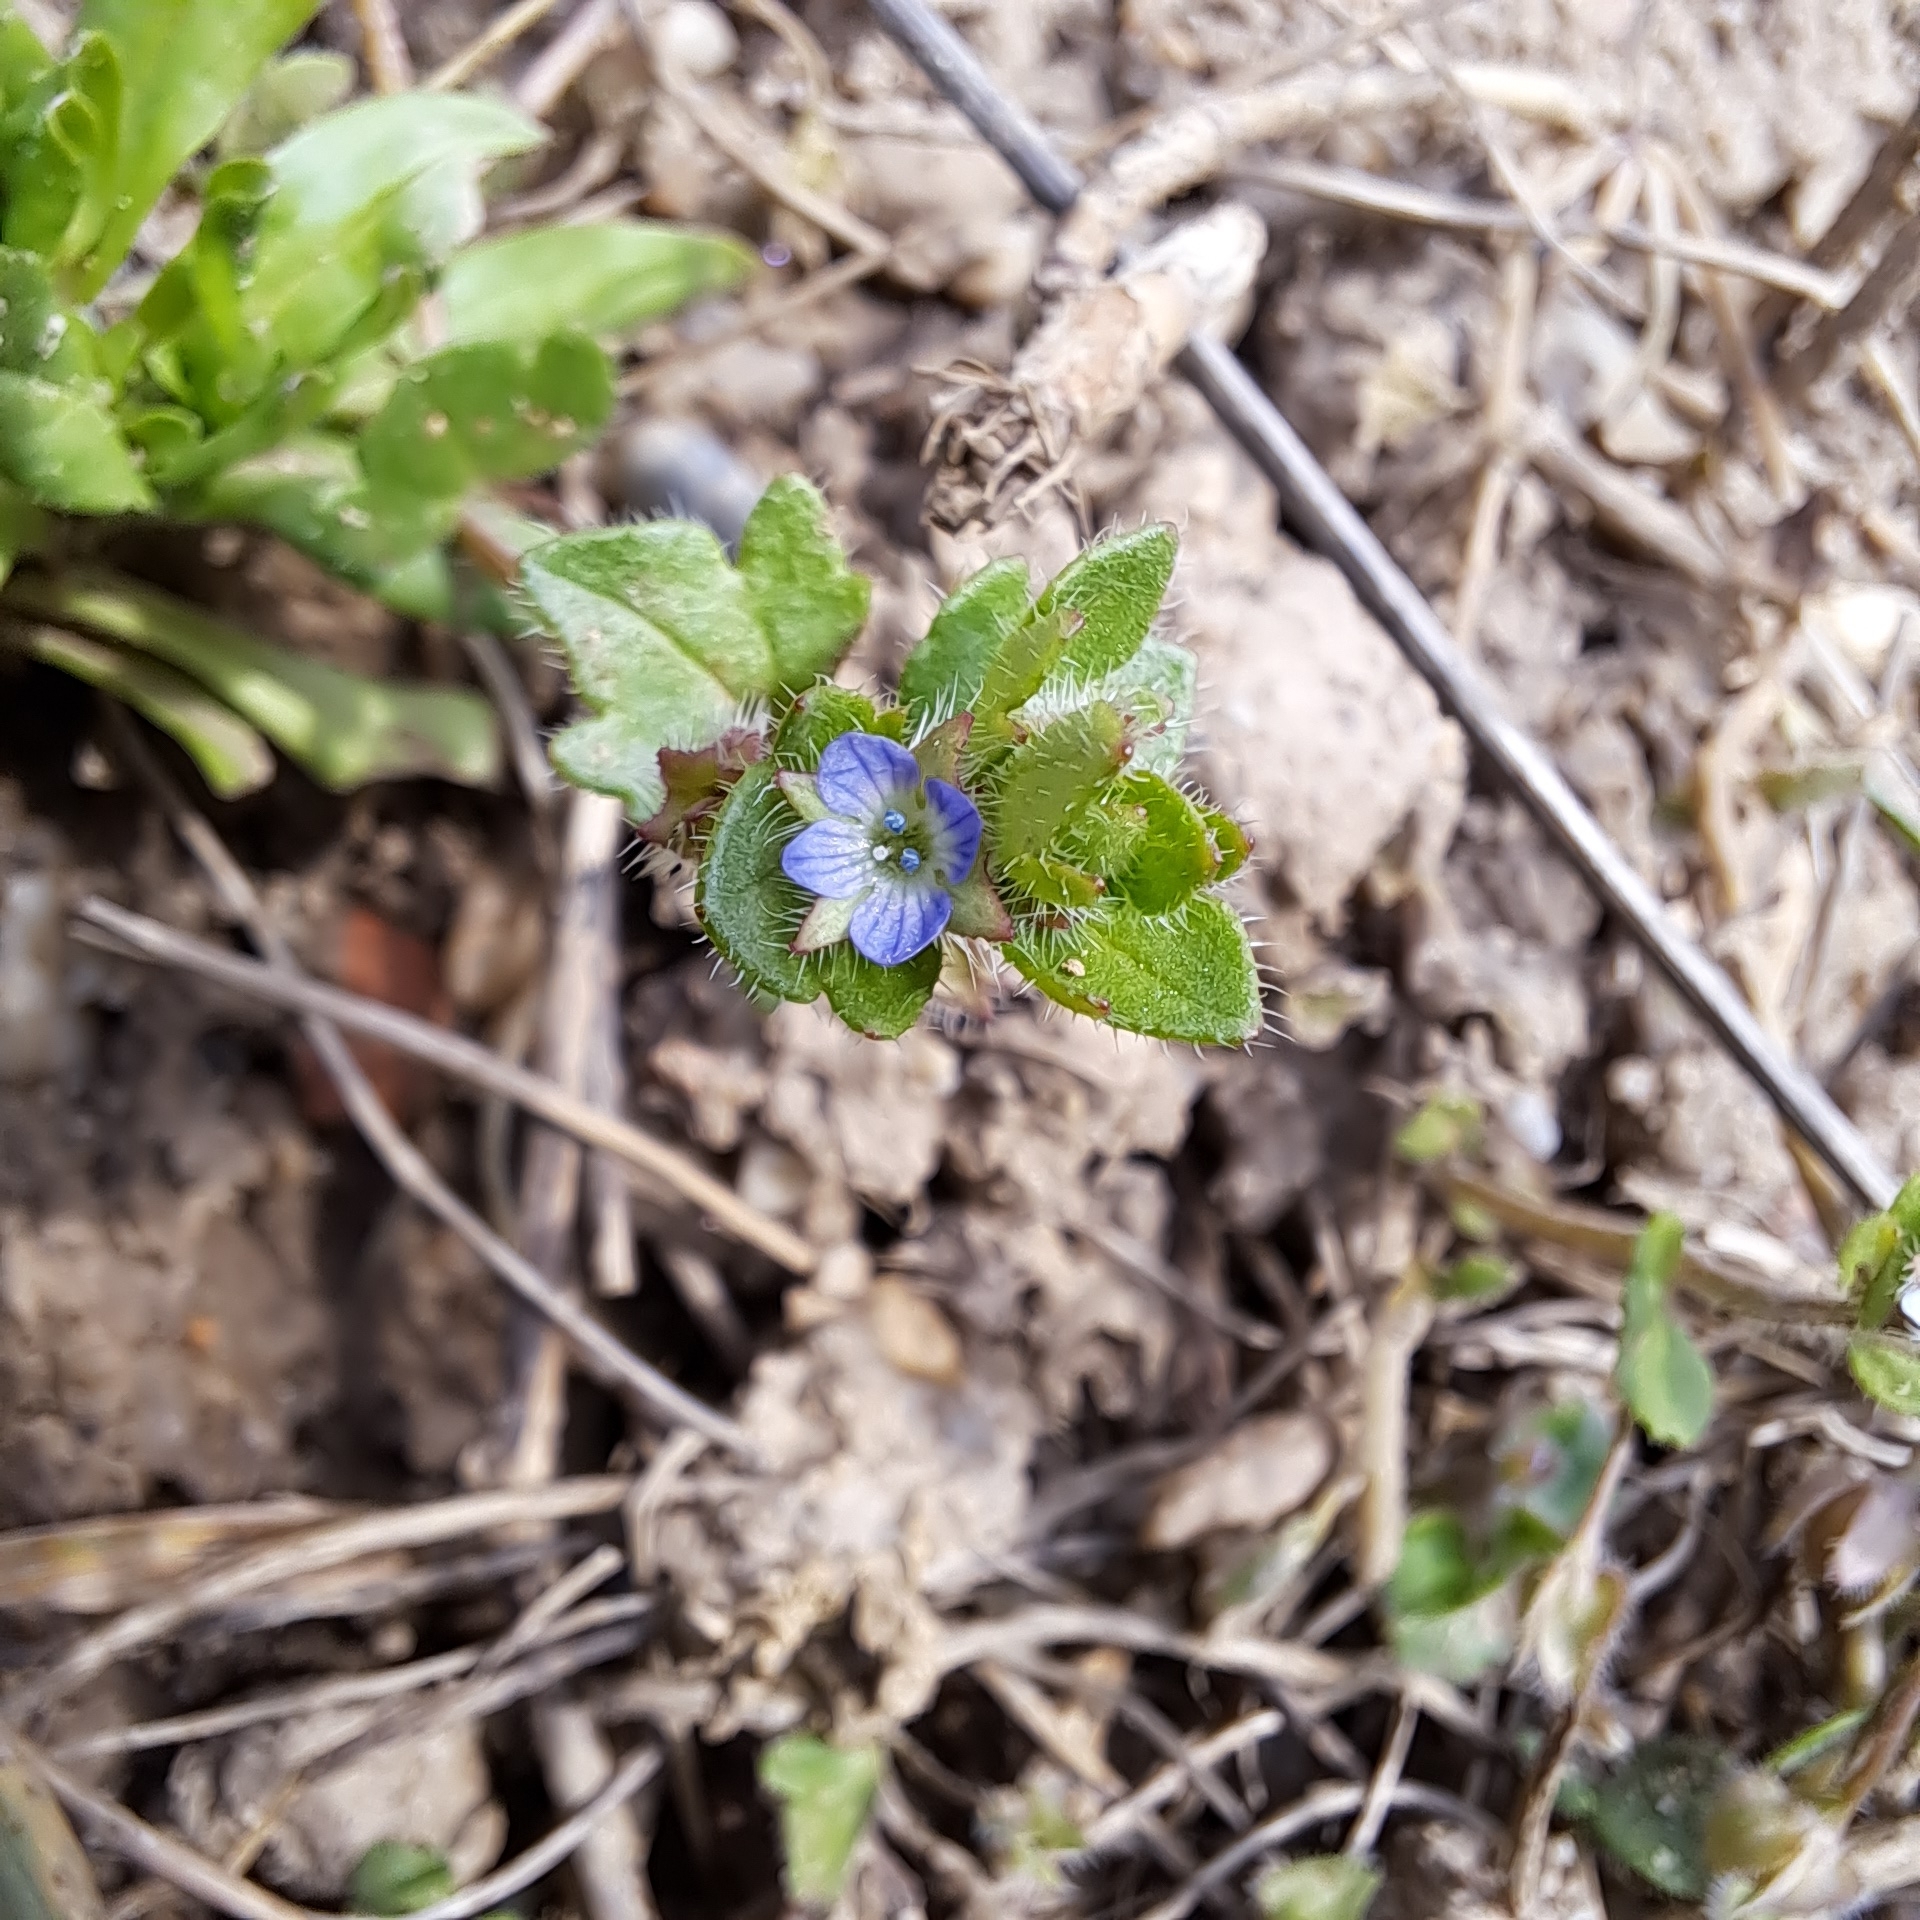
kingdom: Plantae
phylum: Tracheophyta
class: Magnoliopsida
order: Lamiales
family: Plantaginaceae
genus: Veronica
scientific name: Veronica hederifolia
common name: Ivy-leaved speedwell
